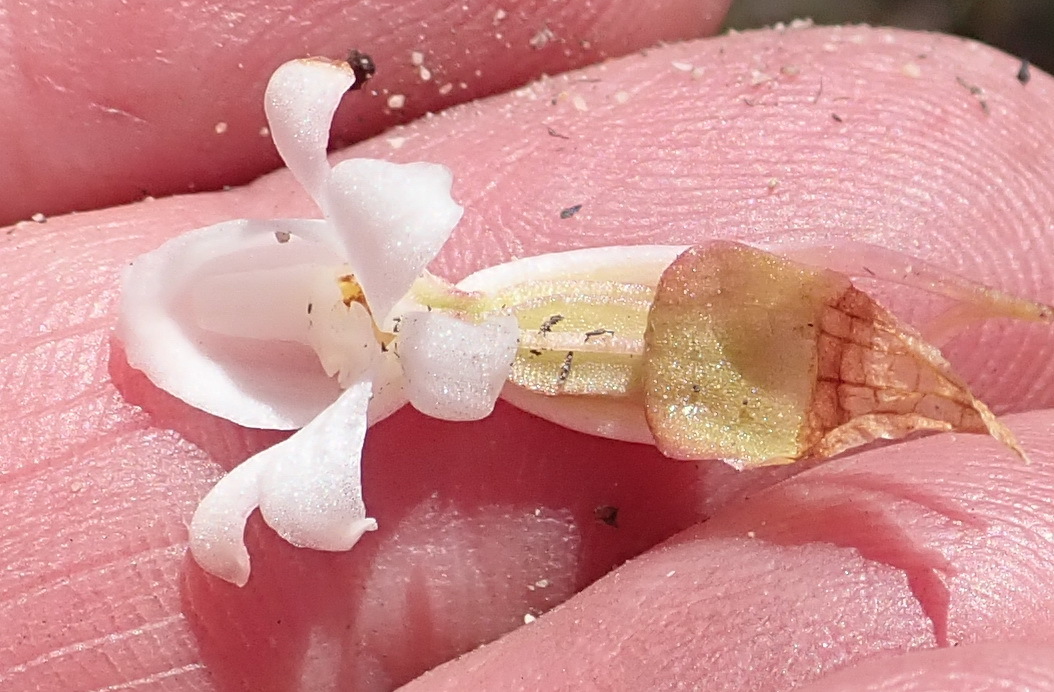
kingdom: Plantae
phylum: Tracheophyta
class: Liliopsida
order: Asparagales
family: Orchidaceae
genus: Satyrium
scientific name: Satyrium acuminatum
